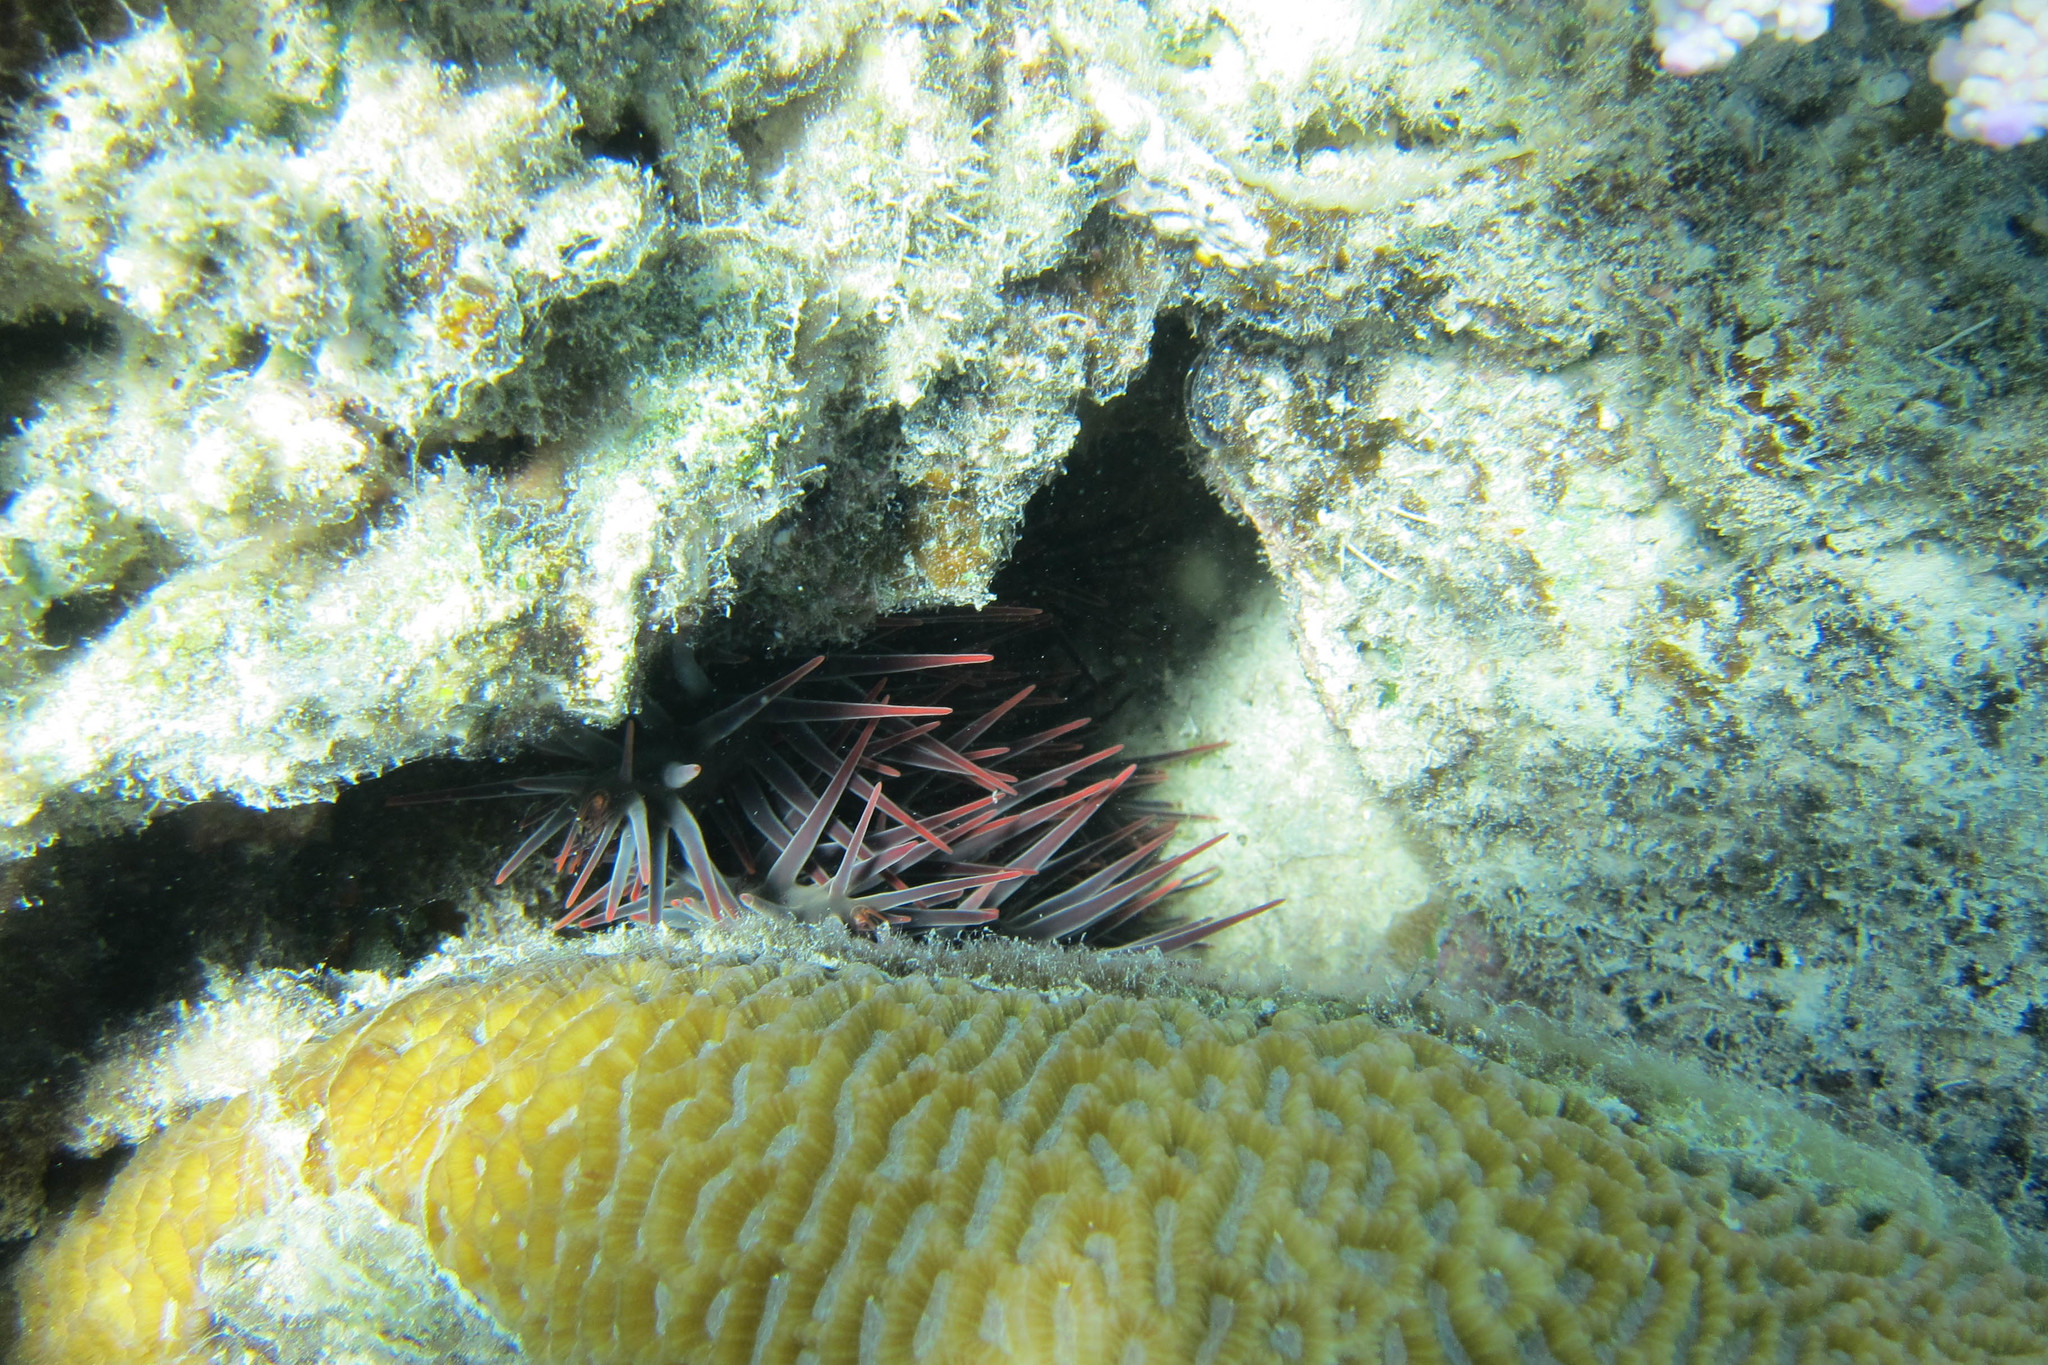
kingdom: Animalia
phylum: Echinodermata
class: Asteroidea
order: Valvatida
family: Acanthasteridae
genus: Acanthaster
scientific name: Acanthaster planci
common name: Crown-of-thorns
